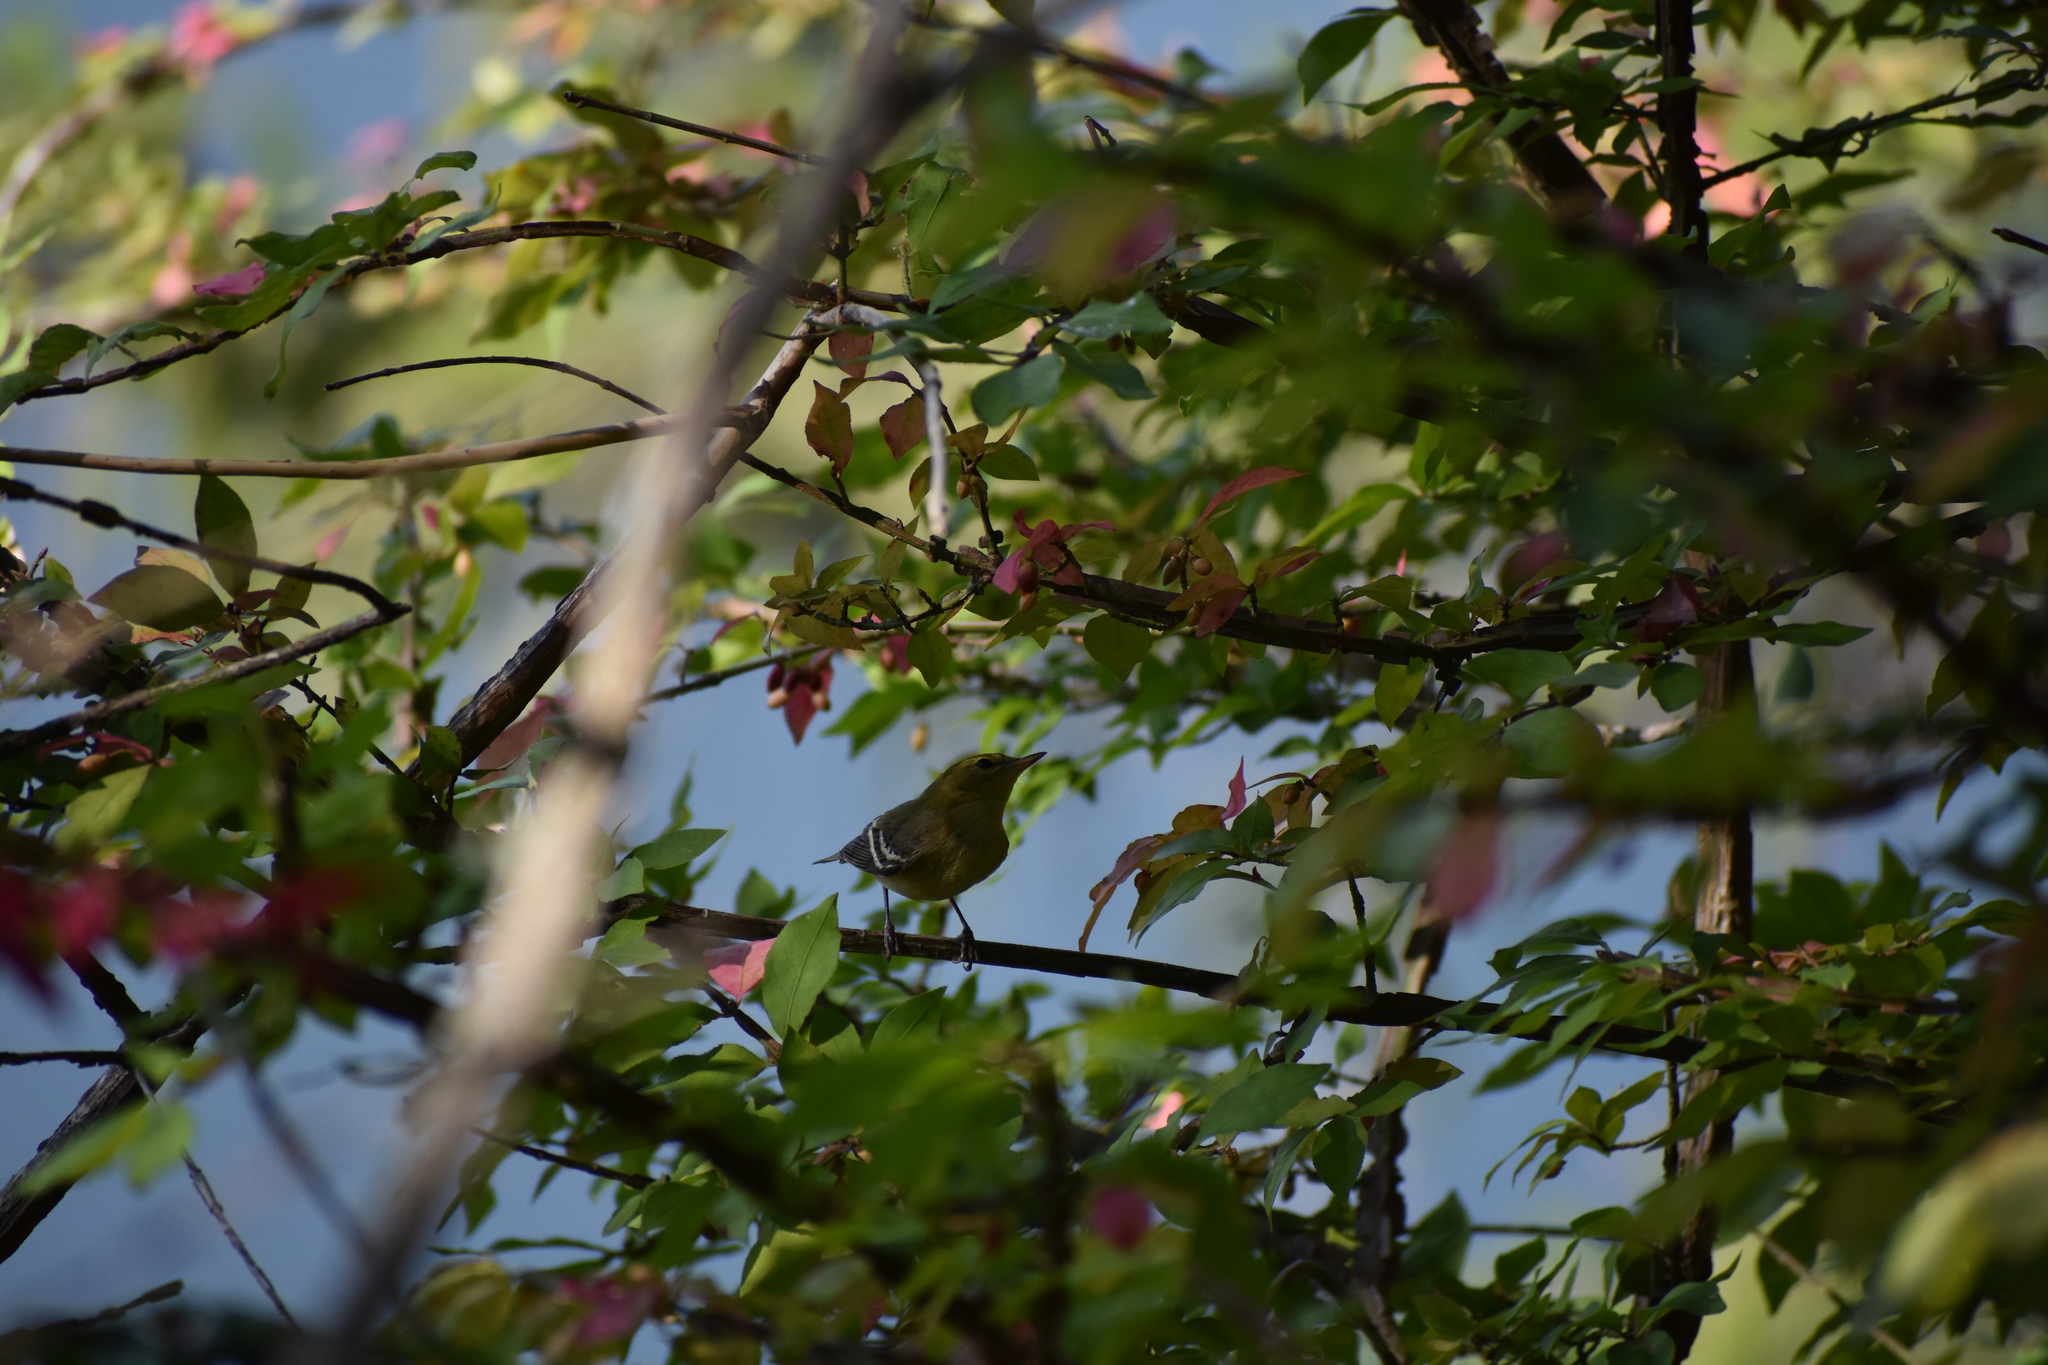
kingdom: Animalia
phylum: Chordata
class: Aves
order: Passeriformes
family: Parulidae
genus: Setophaga
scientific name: Setophaga castanea
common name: Bay-breasted warbler
